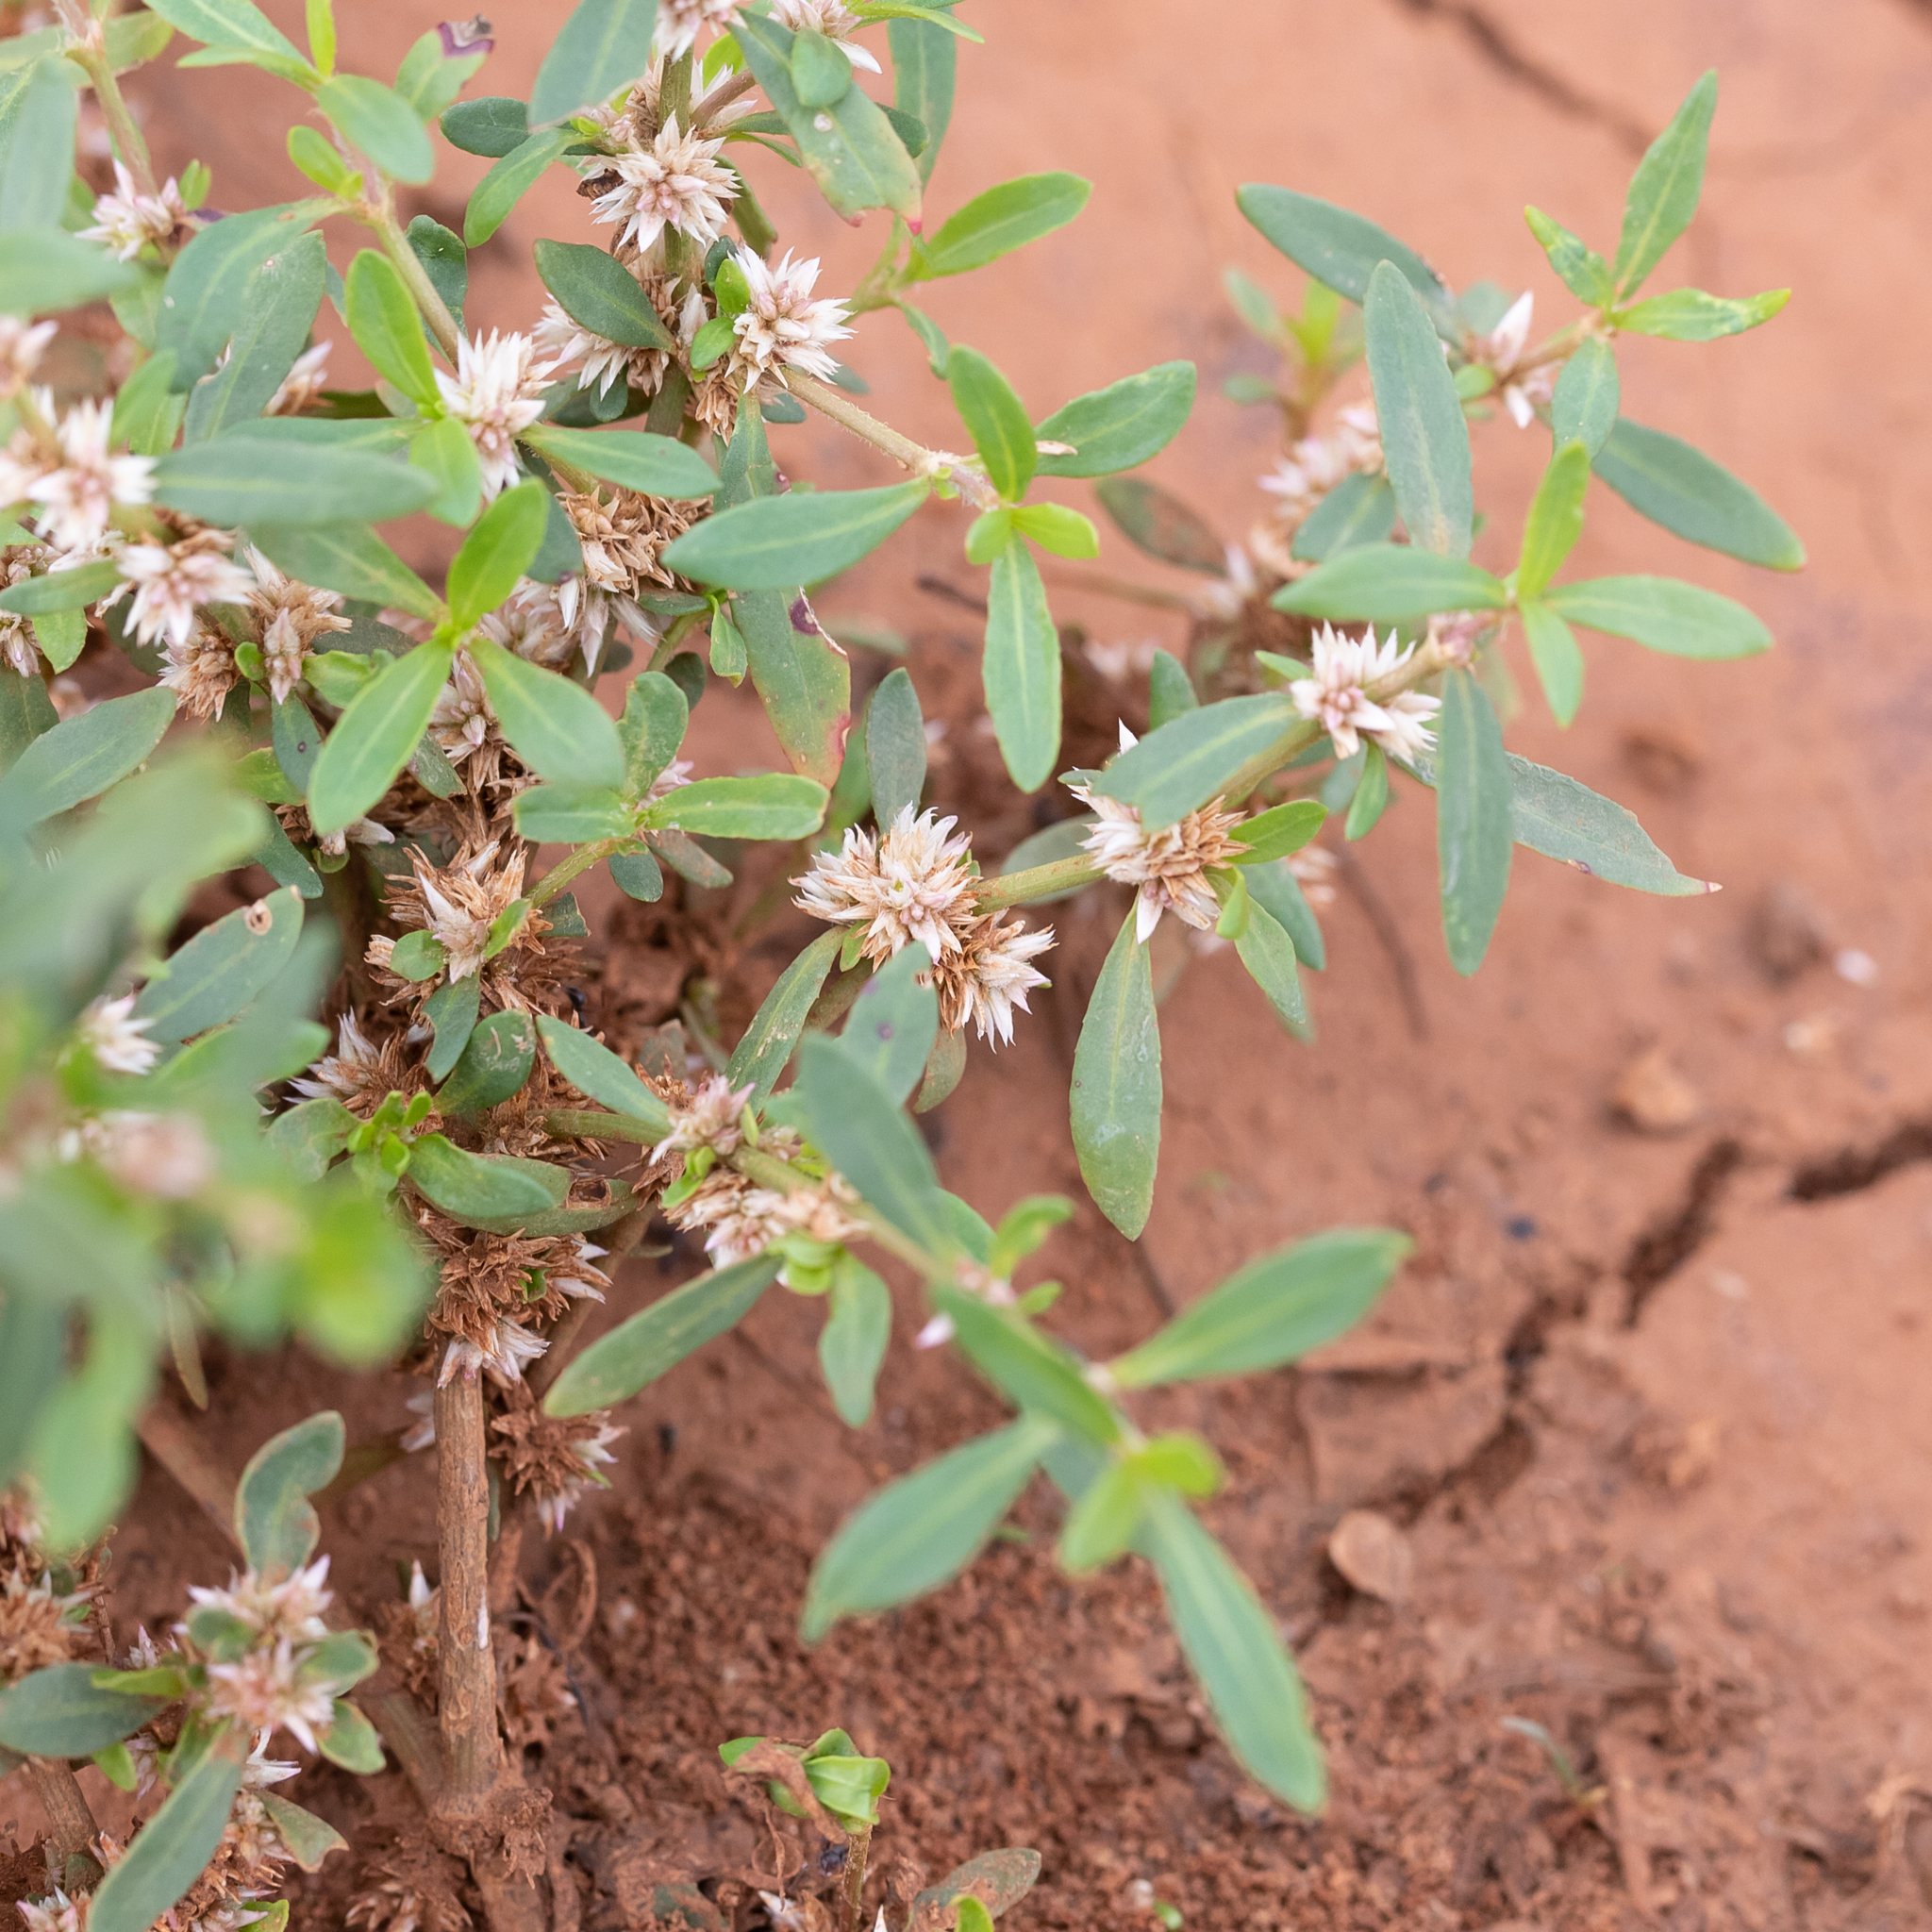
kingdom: Plantae
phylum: Tracheophyta
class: Magnoliopsida
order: Caryophyllales
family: Amaranthaceae
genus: Alternanthera
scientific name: Alternanthera denticulata
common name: Lesser joyweed
